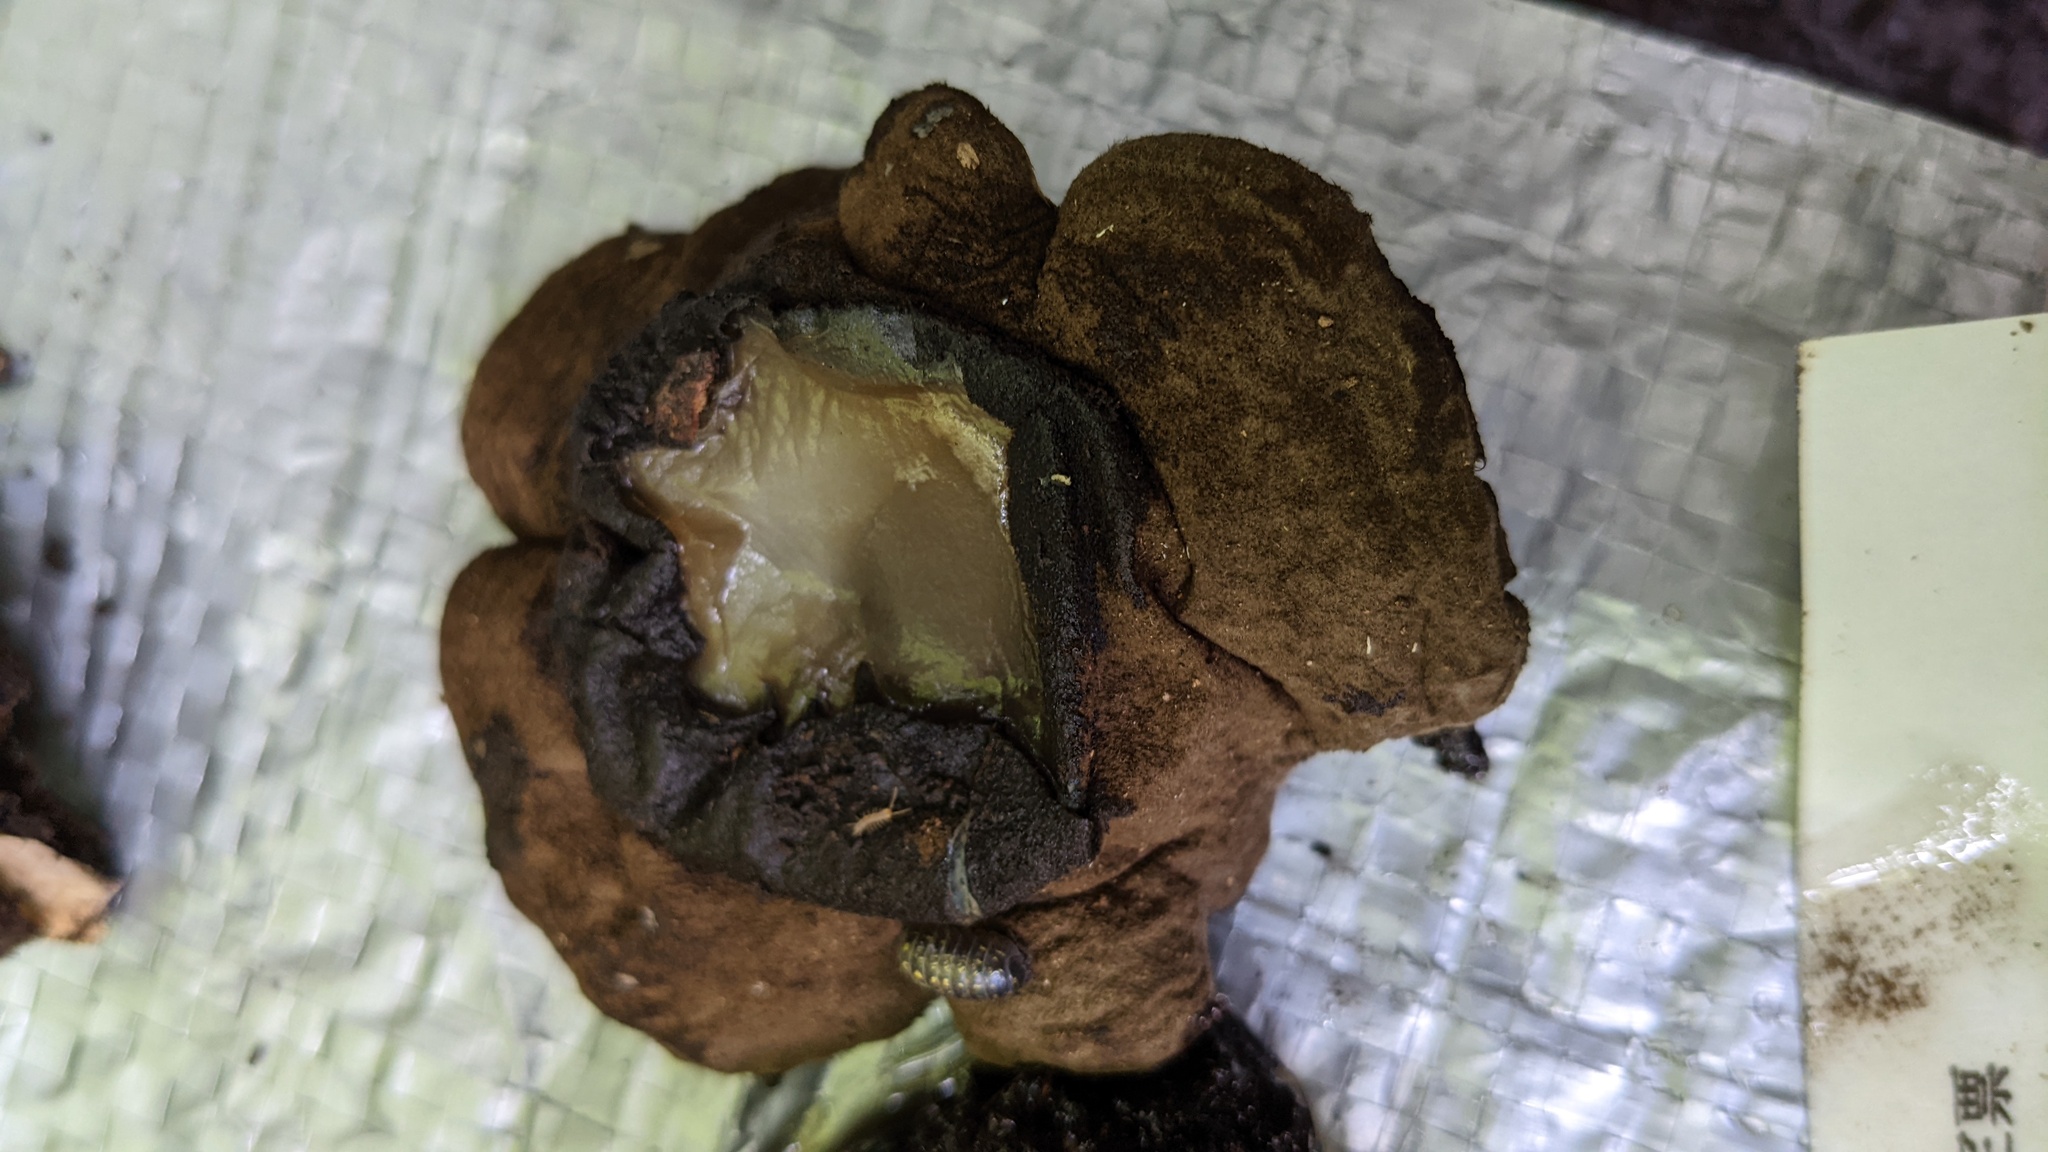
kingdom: Fungi
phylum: Ascomycota
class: Pezizomycetes
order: Pezizales
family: Pyronemataceae
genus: Trichaleurina
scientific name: Trichaleurina tenuispora
